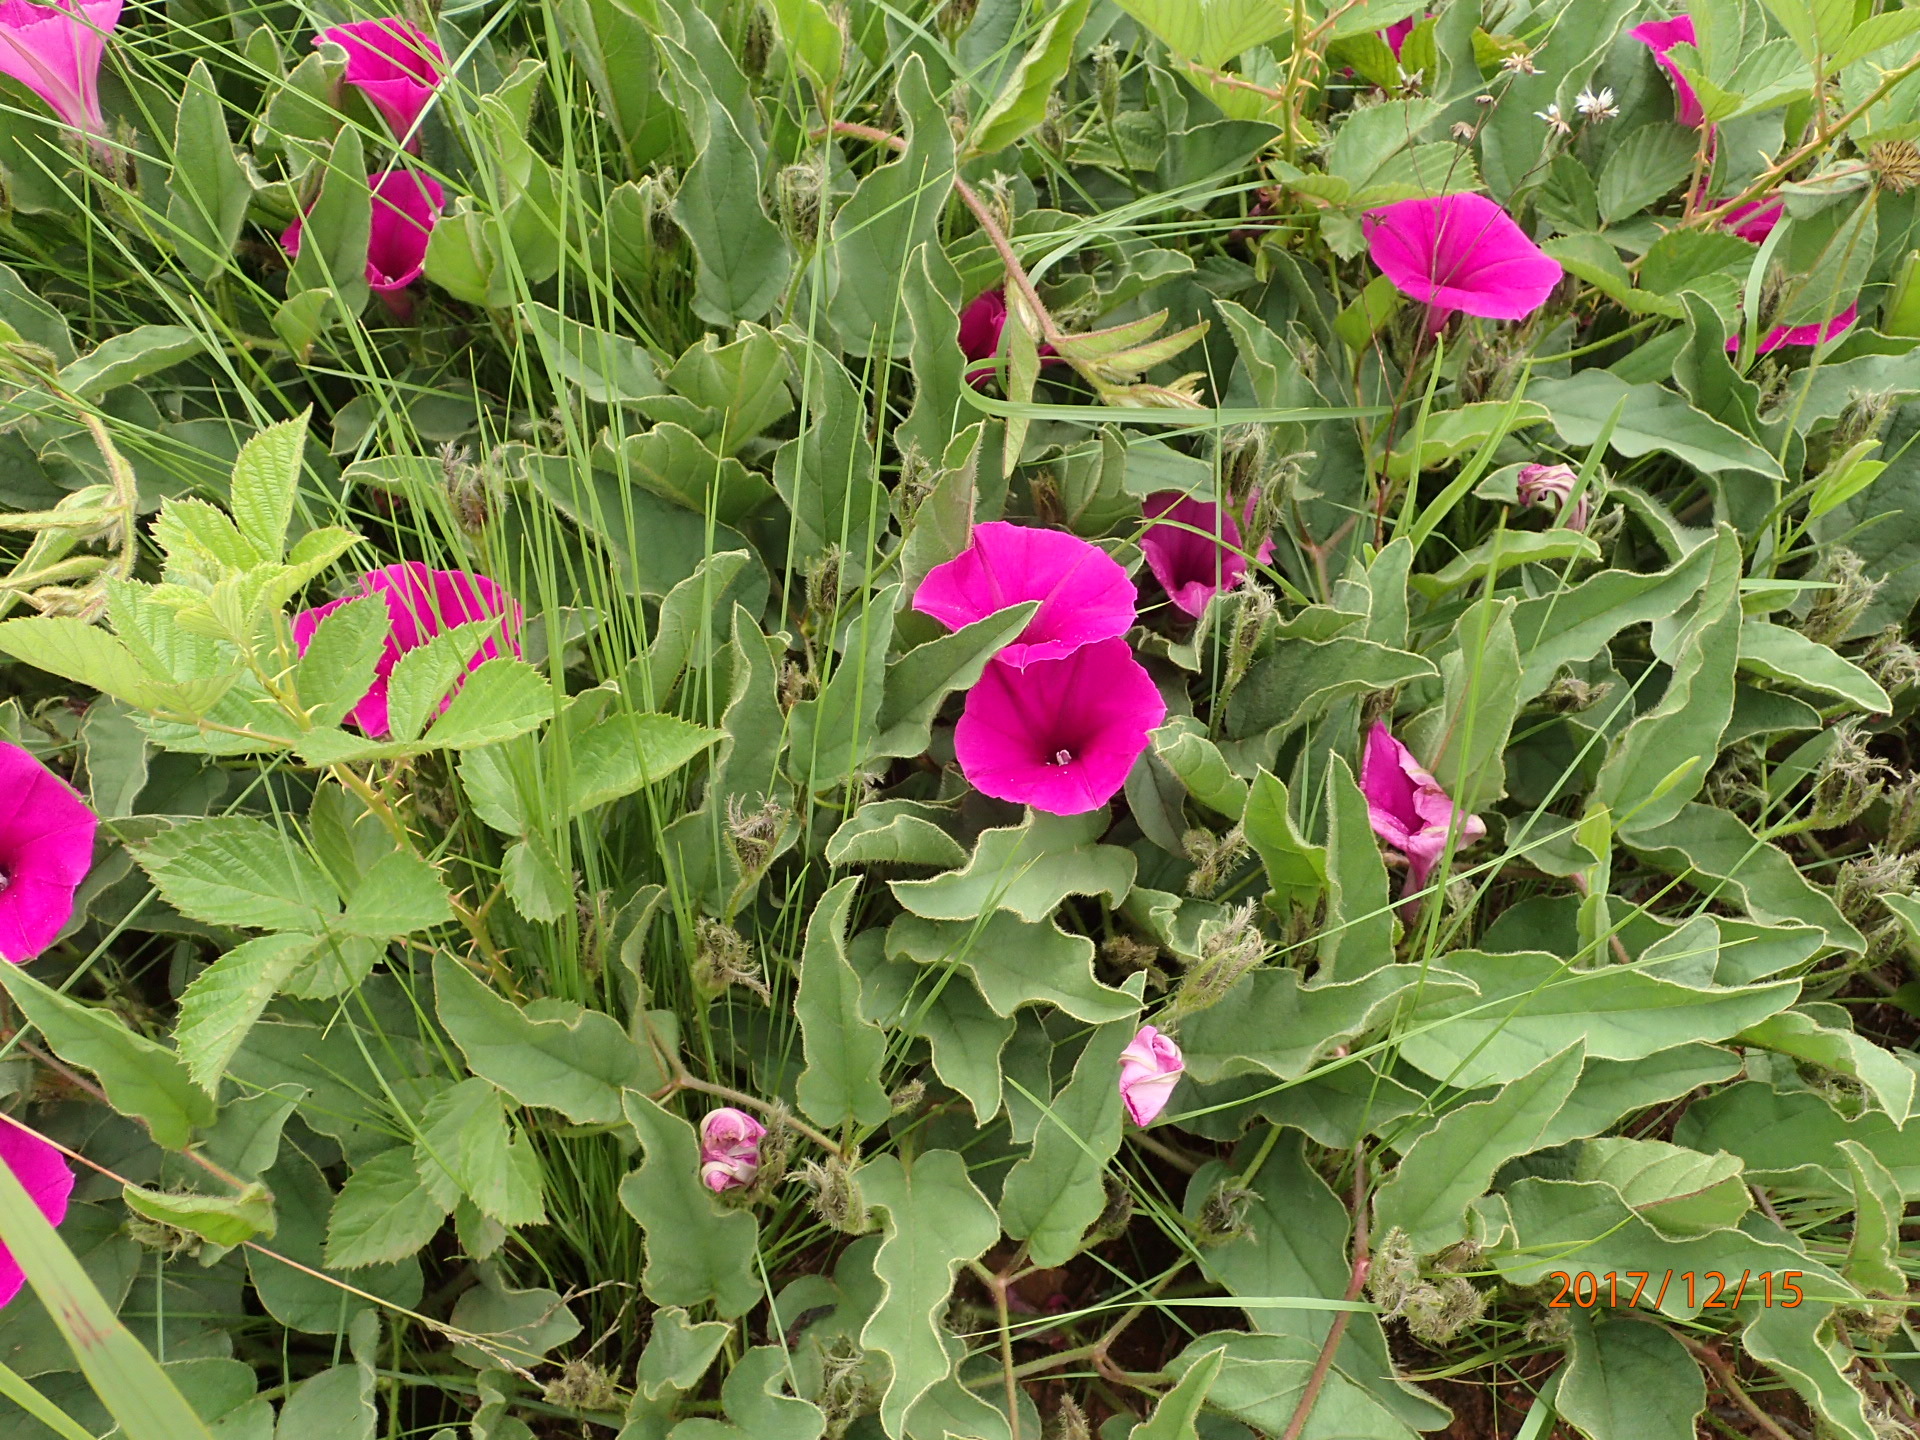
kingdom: Plantae
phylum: Tracheophyta
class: Magnoliopsida
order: Solanales
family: Convolvulaceae
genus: Ipomoea
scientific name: Ipomoea pellita
